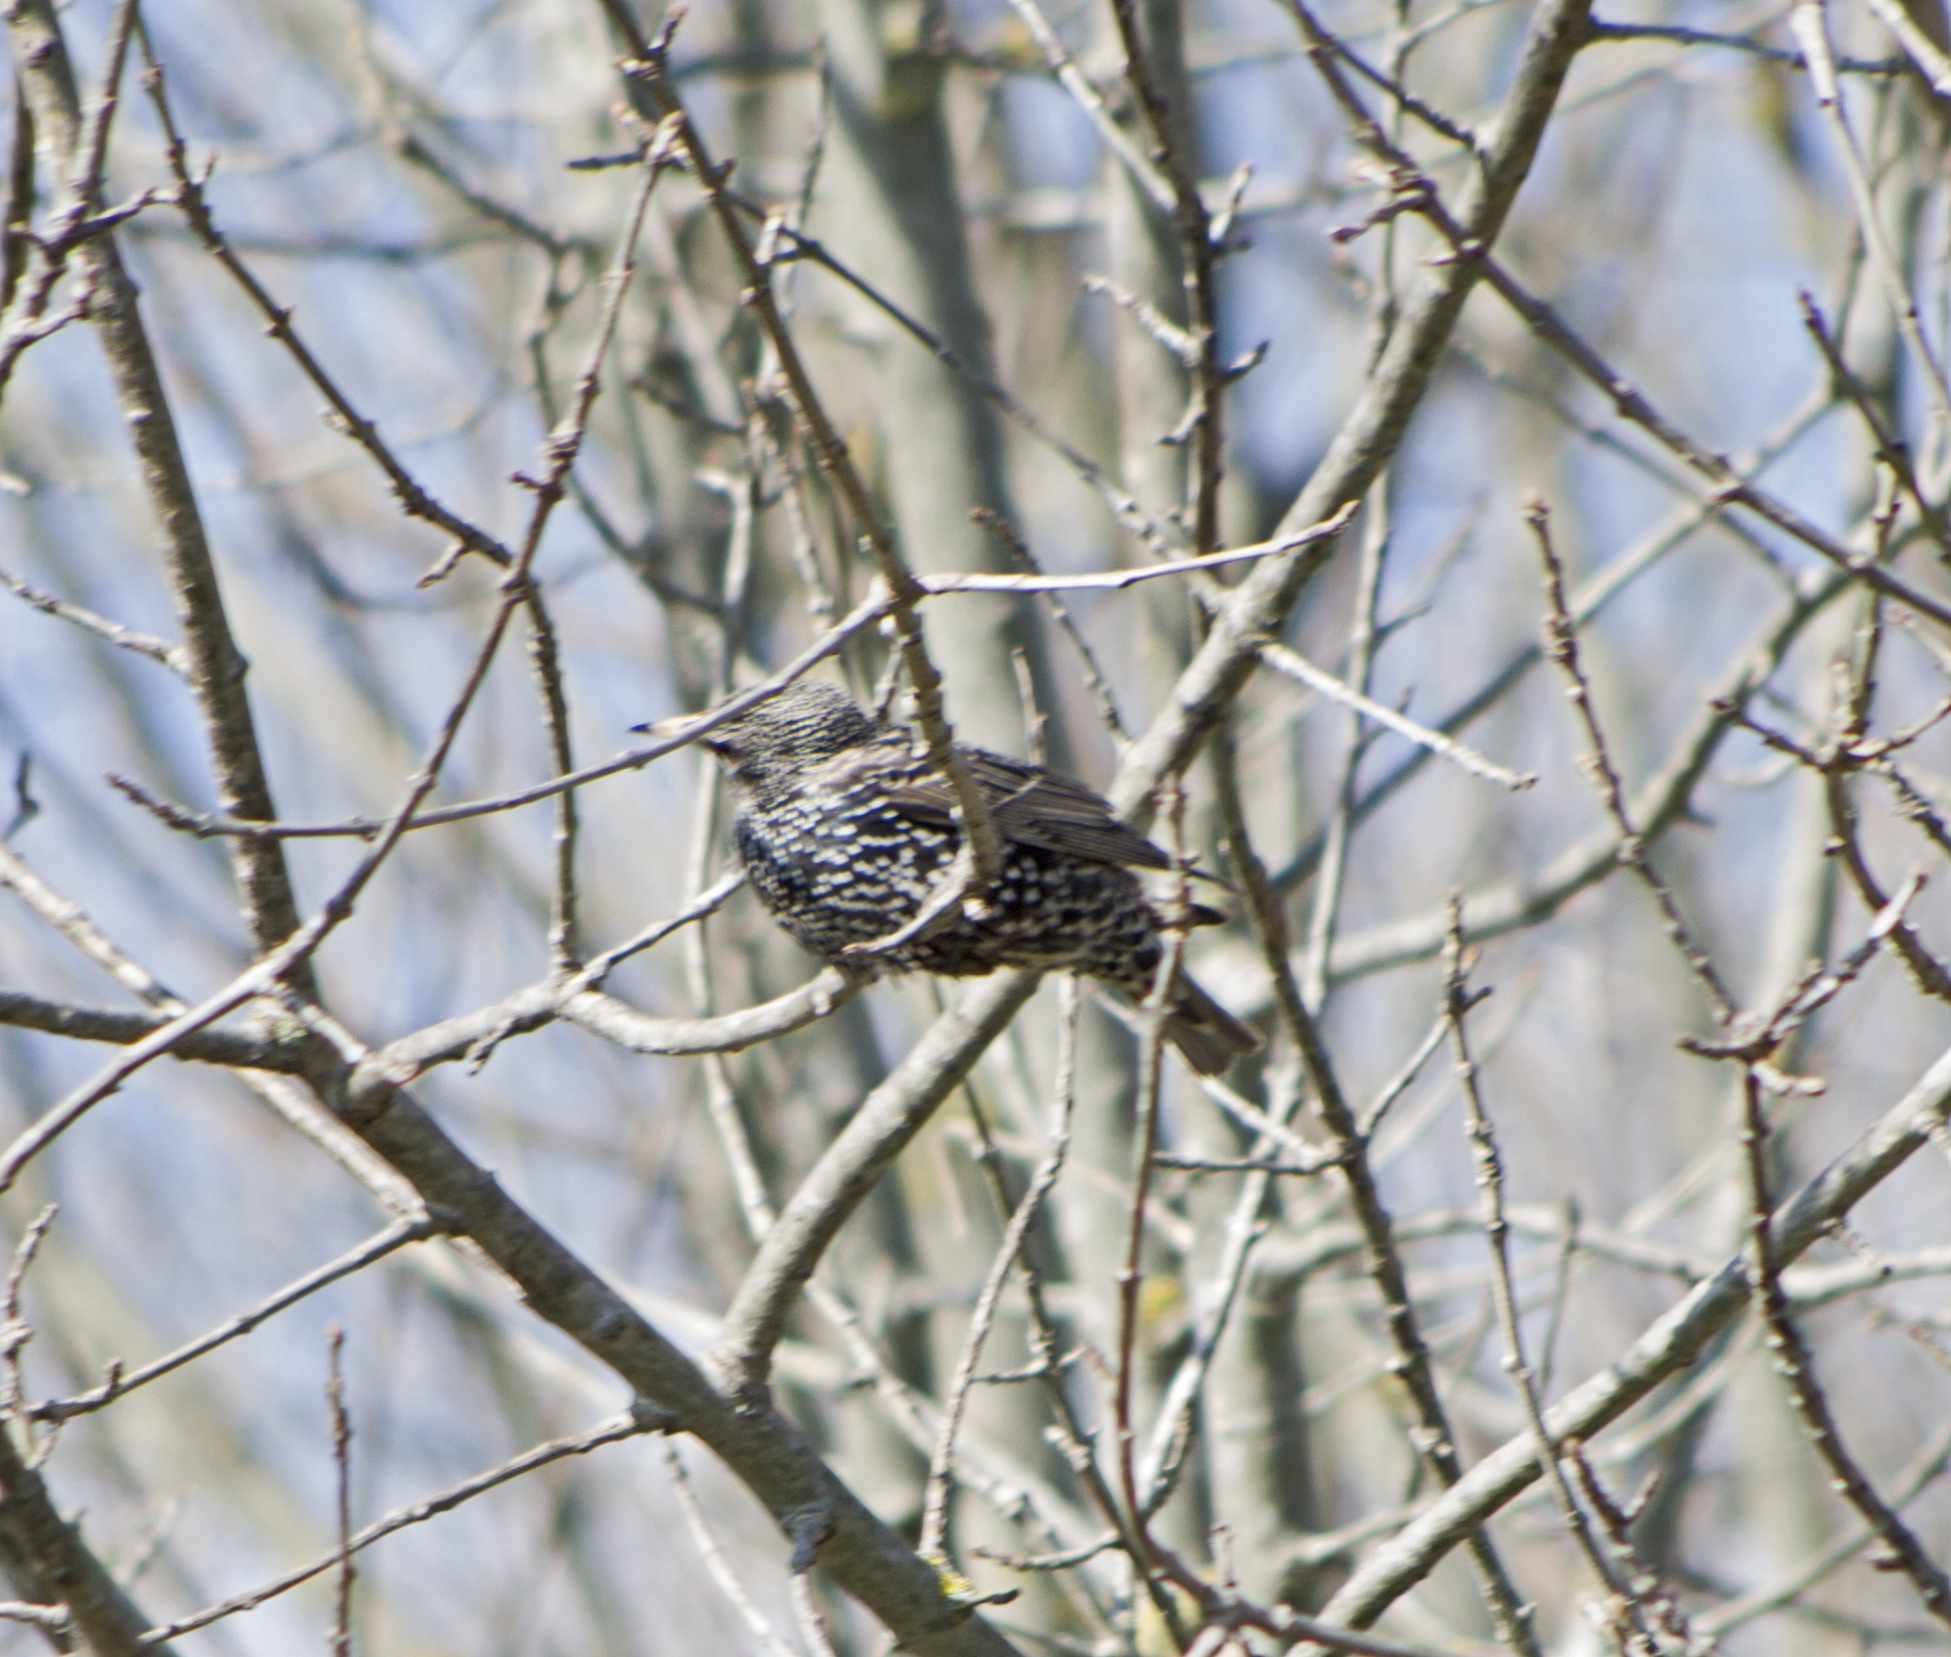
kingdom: Animalia
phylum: Chordata
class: Aves
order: Passeriformes
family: Sturnidae
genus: Sturnus
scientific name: Sturnus vulgaris
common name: Common starling
